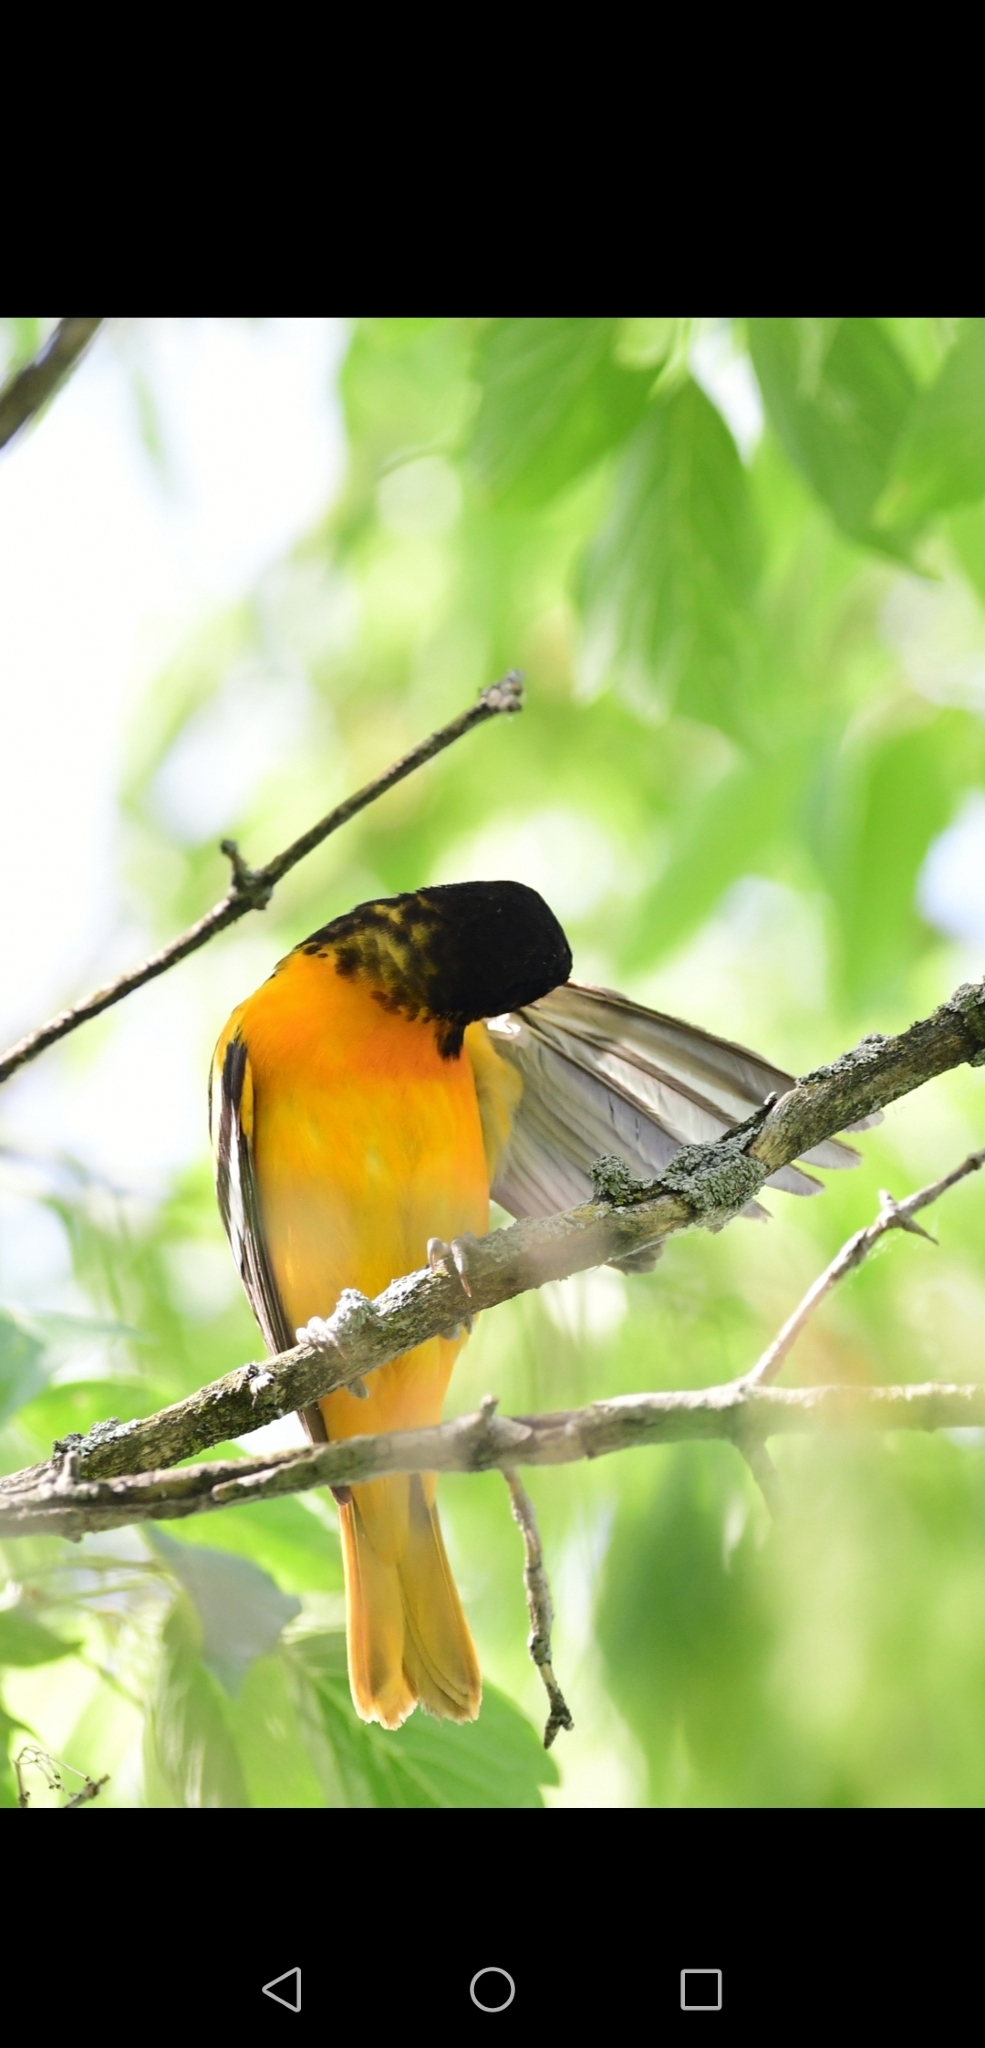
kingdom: Animalia
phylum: Chordata
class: Aves
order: Passeriformes
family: Icteridae
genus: Icterus
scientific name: Icterus galbula
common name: Baltimore oriole
